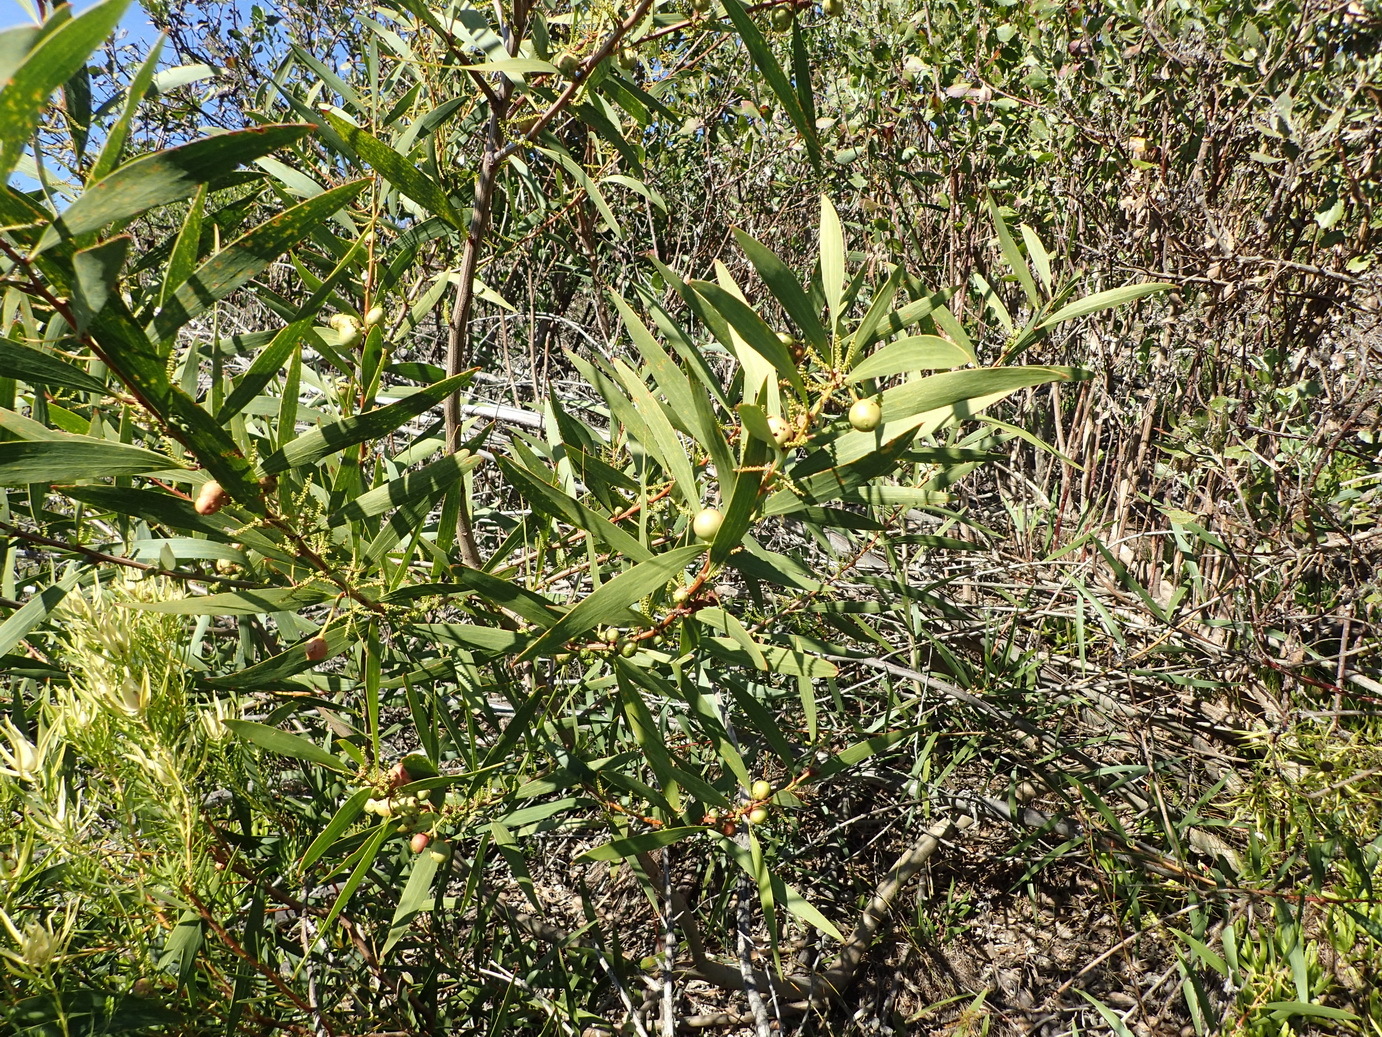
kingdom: Plantae
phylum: Tracheophyta
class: Magnoliopsida
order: Fabales
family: Fabaceae
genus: Acacia
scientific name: Acacia longifolia
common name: Sydney golden wattle
